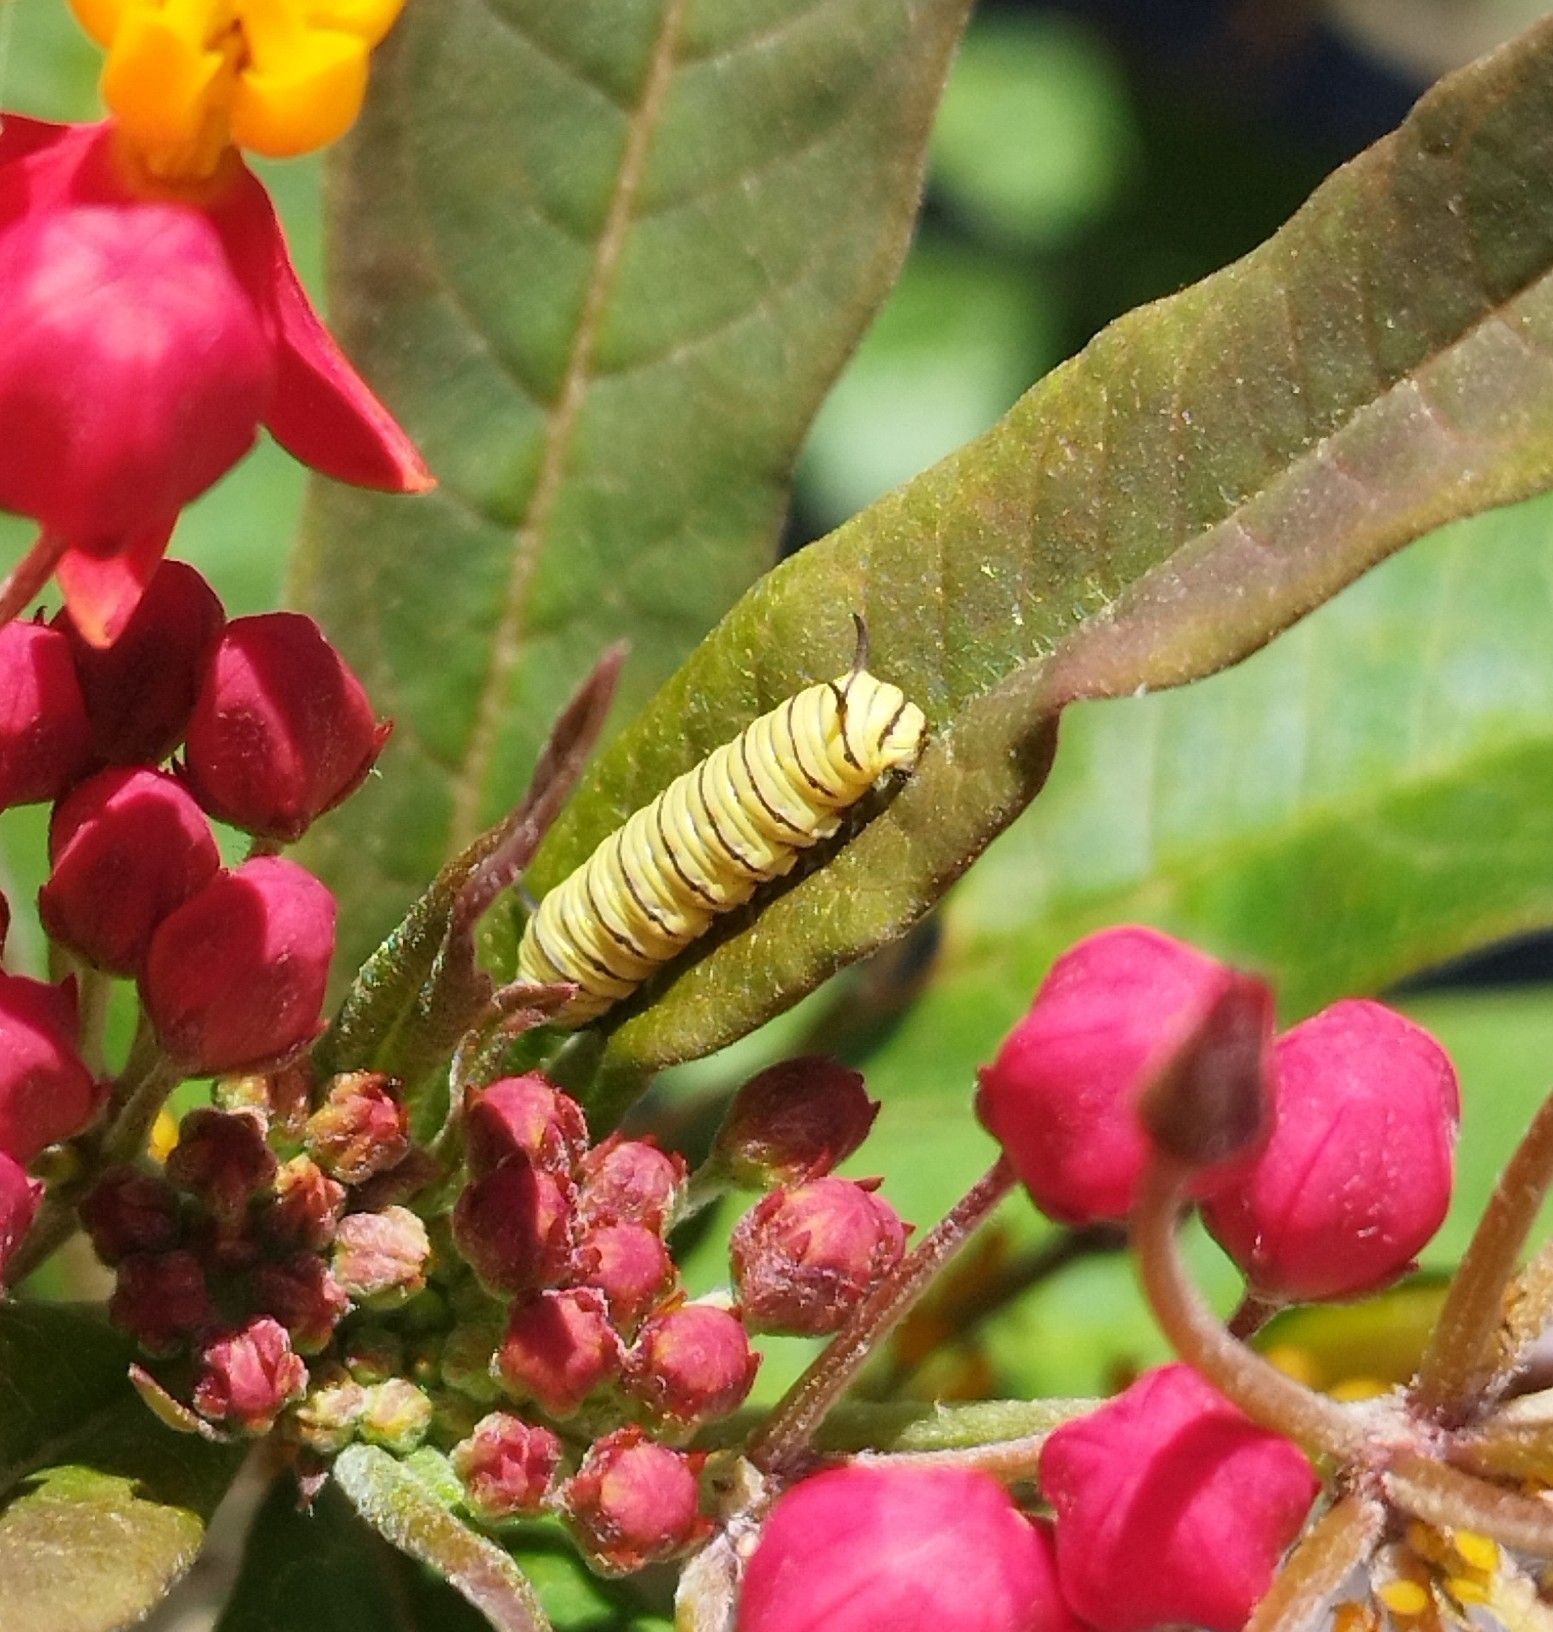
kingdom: Animalia
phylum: Arthropoda
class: Insecta
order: Lepidoptera
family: Nymphalidae
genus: Danaus
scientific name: Danaus erippus
